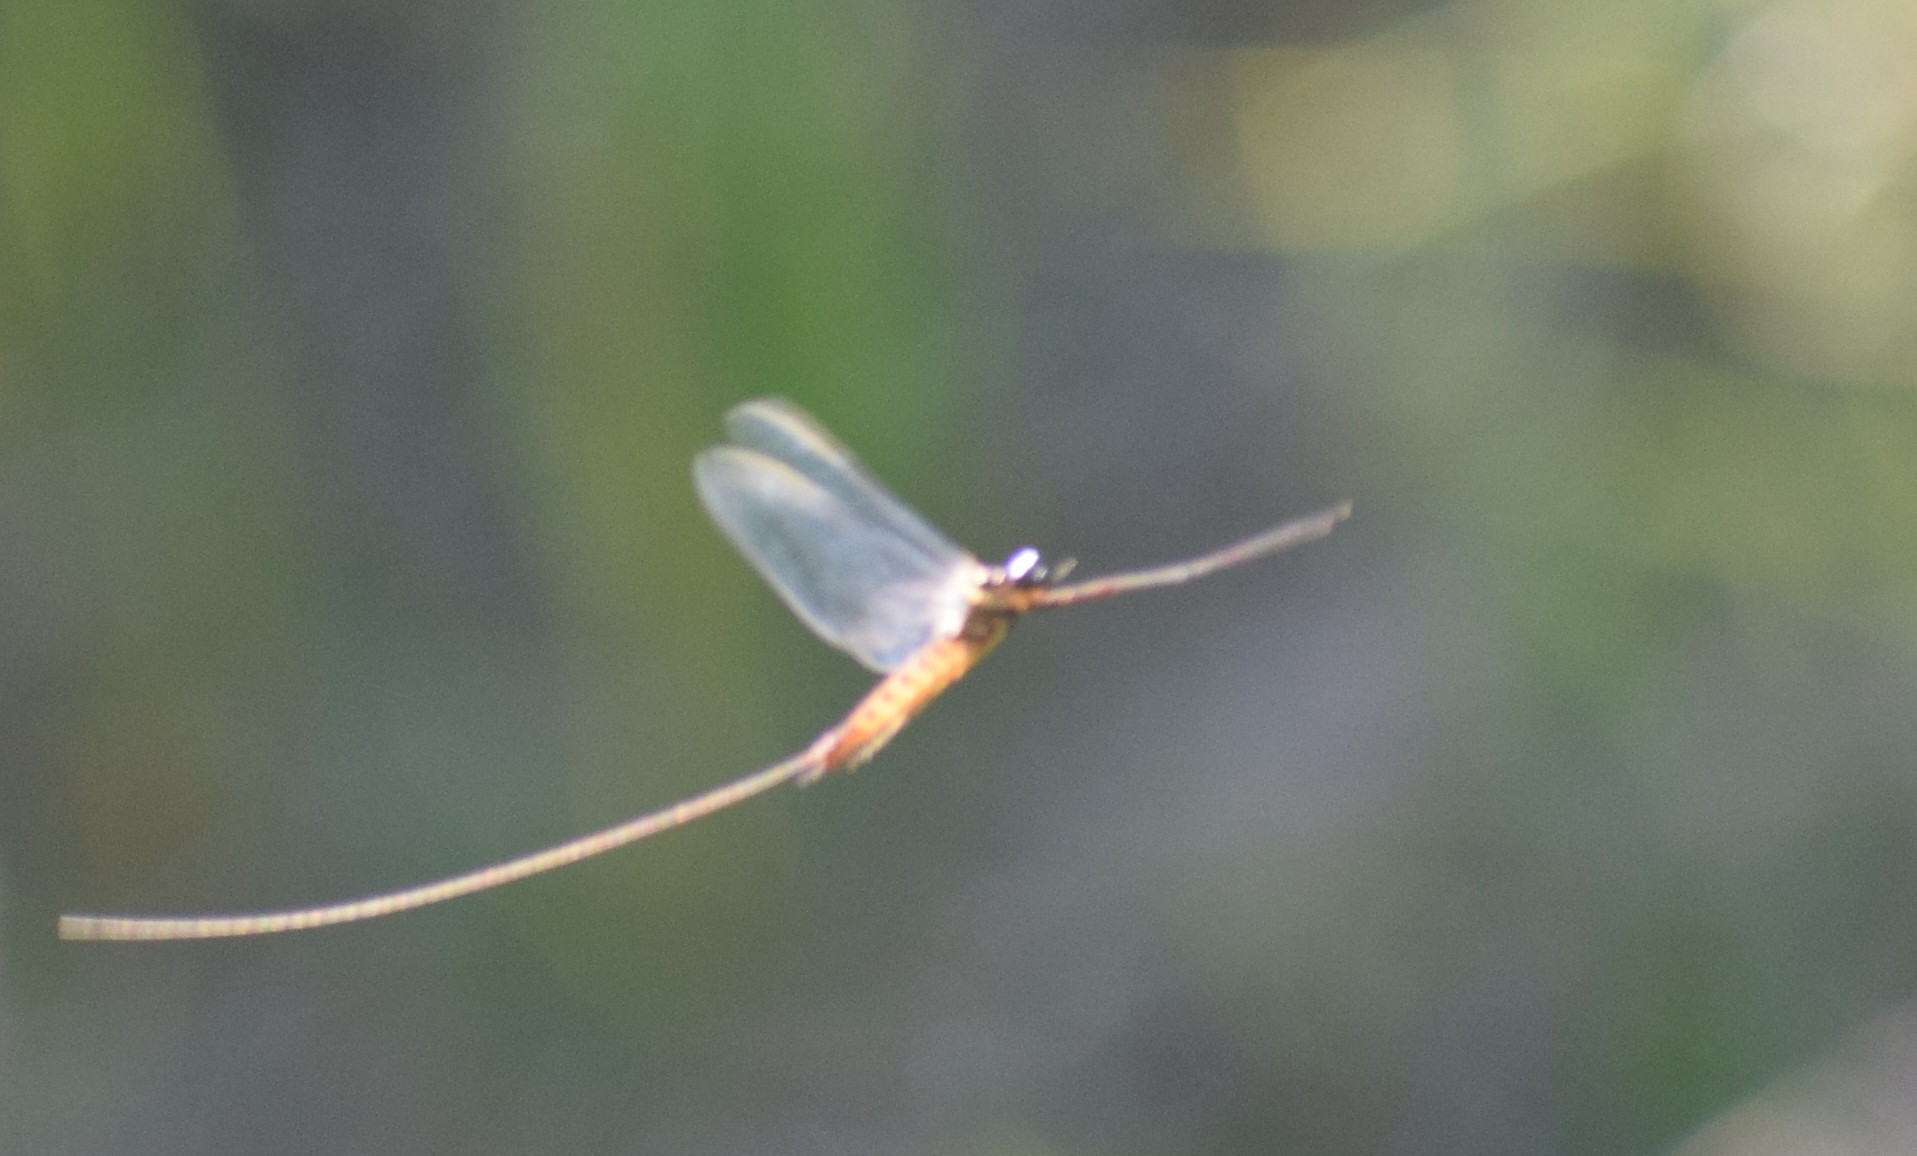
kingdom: Animalia
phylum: Arthropoda
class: Insecta
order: Ephemeroptera
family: Heptageniidae
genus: Ecdyonurus
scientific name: Ecdyonurus
